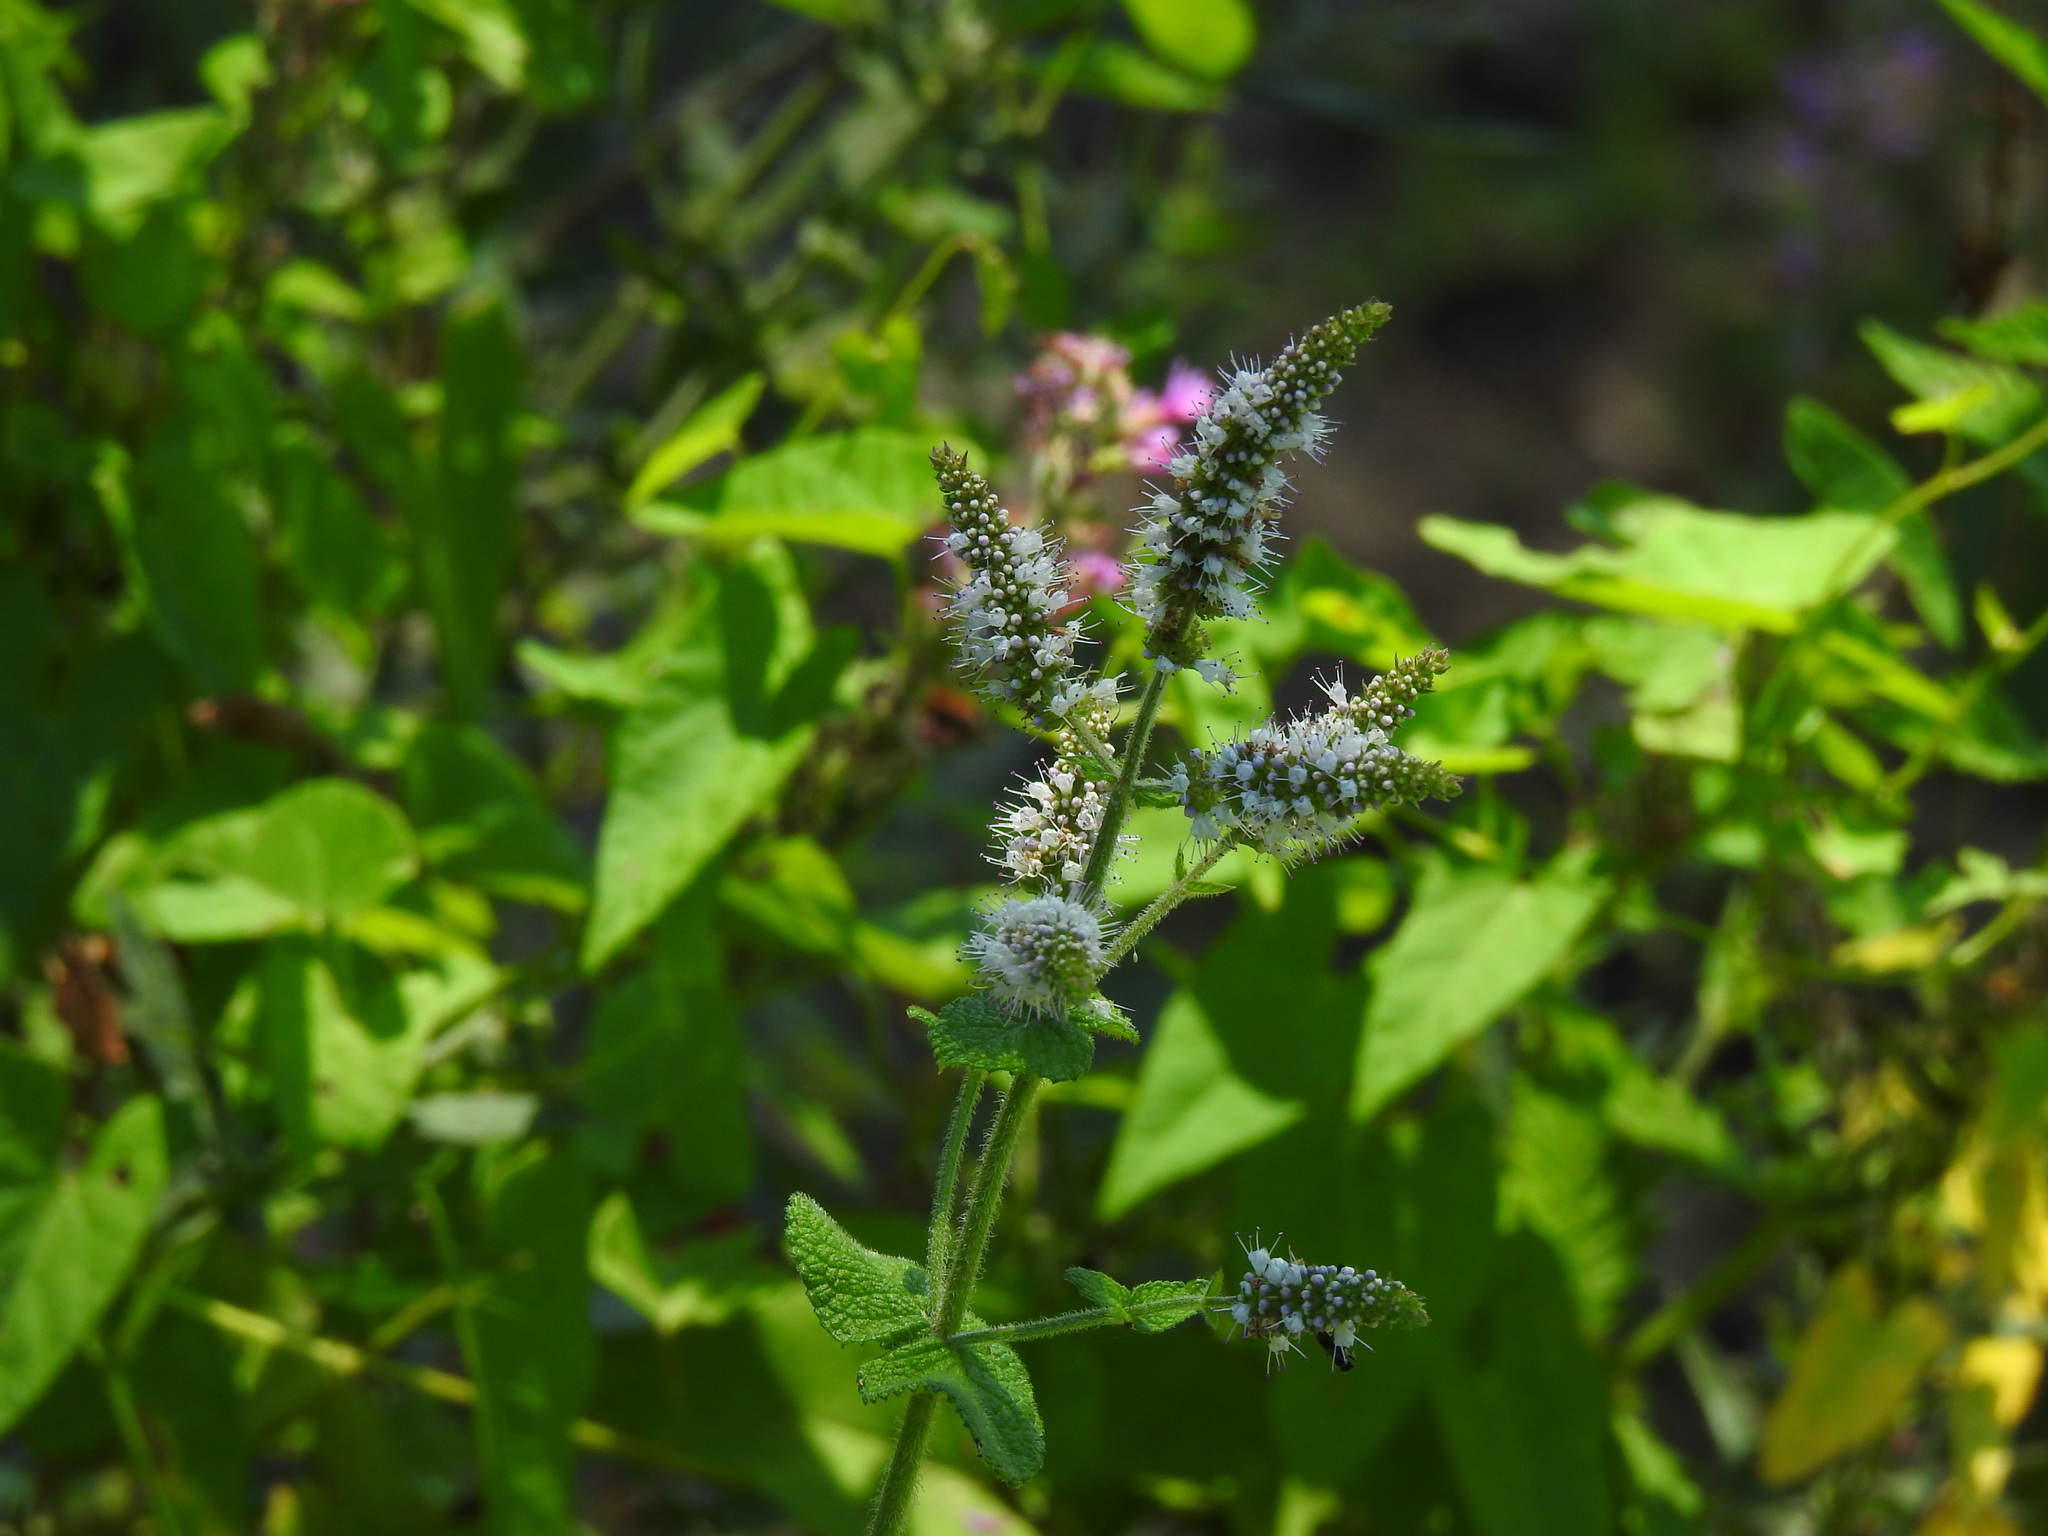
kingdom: Plantae
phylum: Tracheophyta
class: Magnoliopsida
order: Lamiales
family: Lamiaceae
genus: Mentha
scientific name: Mentha suaveolens
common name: Apple mint
